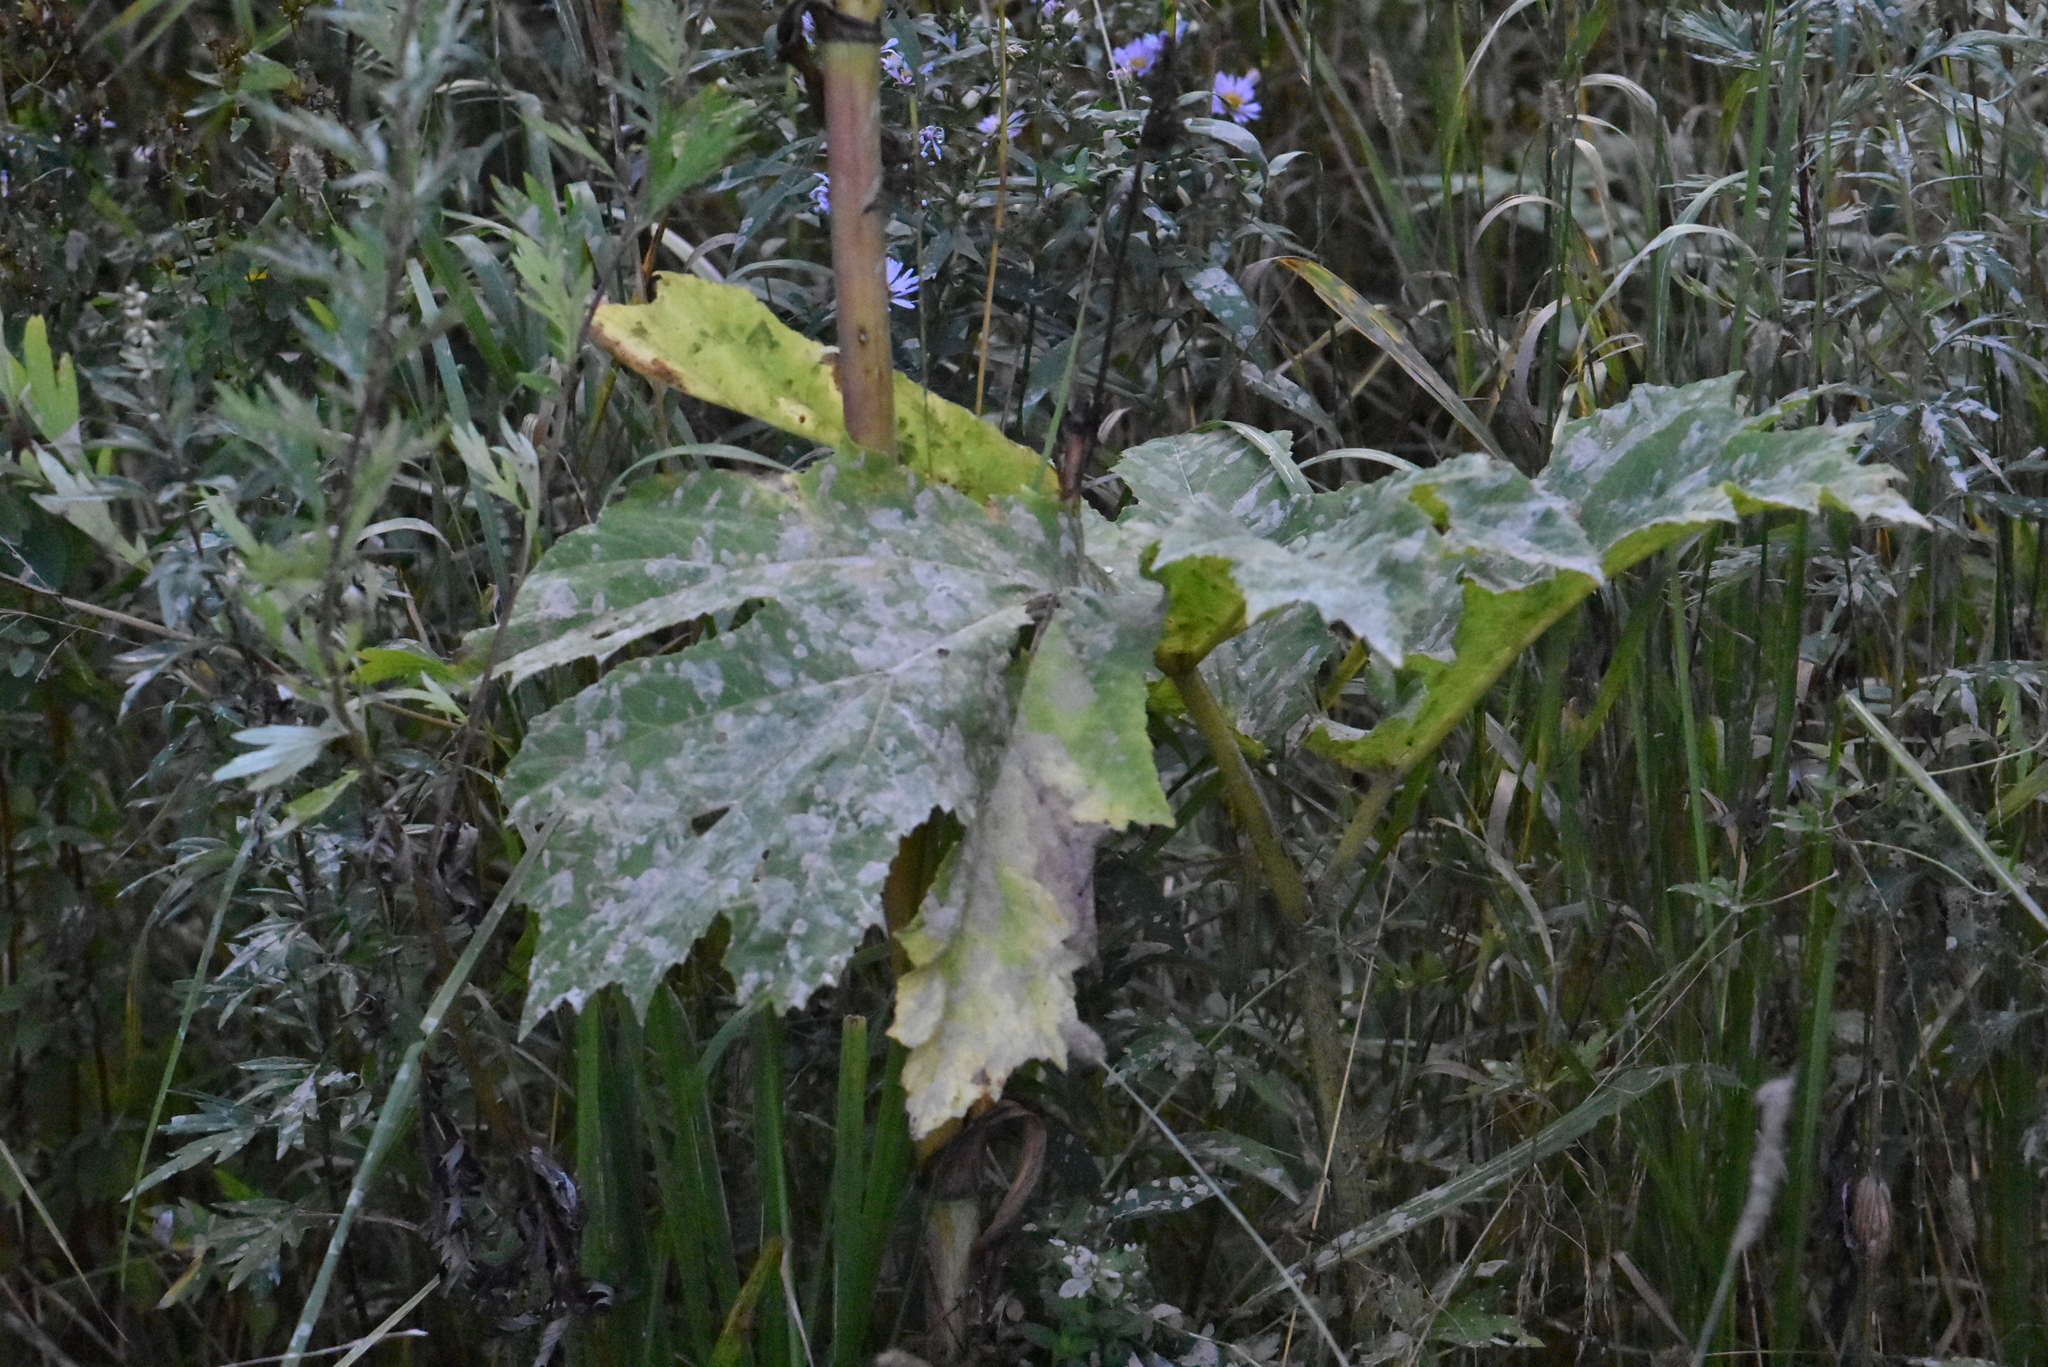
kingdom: Plantae
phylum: Tracheophyta
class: Magnoliopsida
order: Apiales
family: Apiaceae
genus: Heracleum
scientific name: Heracleum sosnowskyi
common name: Sosnowsky's hogweed
